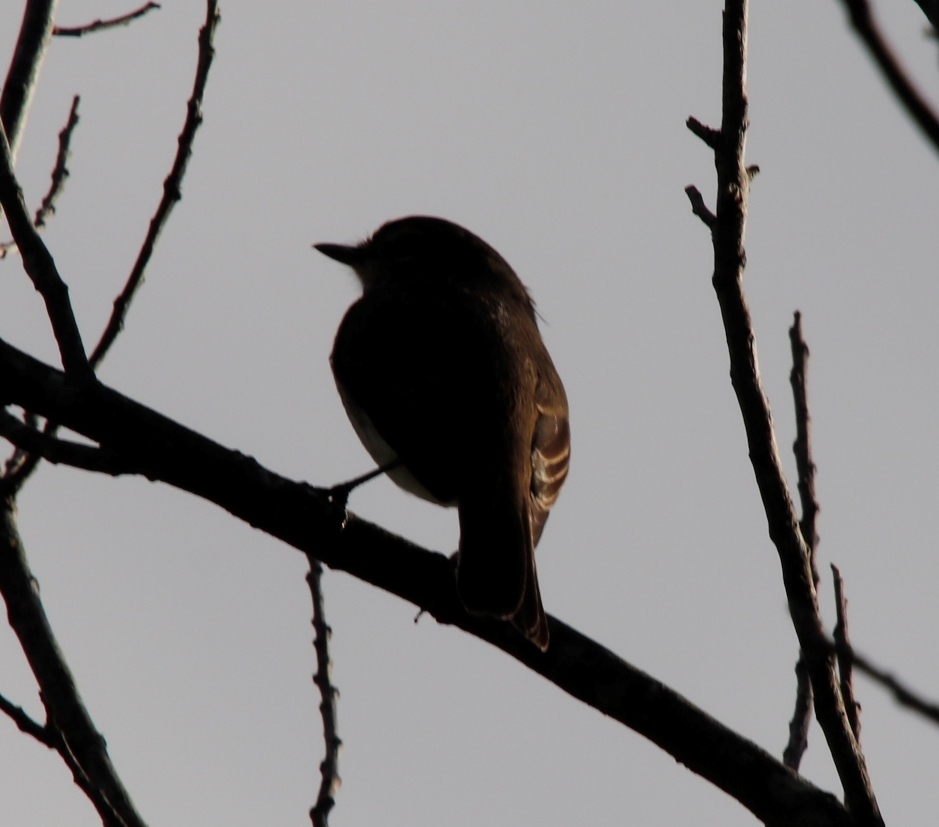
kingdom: Animalia
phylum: Chordata
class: Aves
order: Passeriformes
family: Muscicapidae
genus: Muscicapa
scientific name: Muscicapa adusta
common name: African dusky flycatcher
